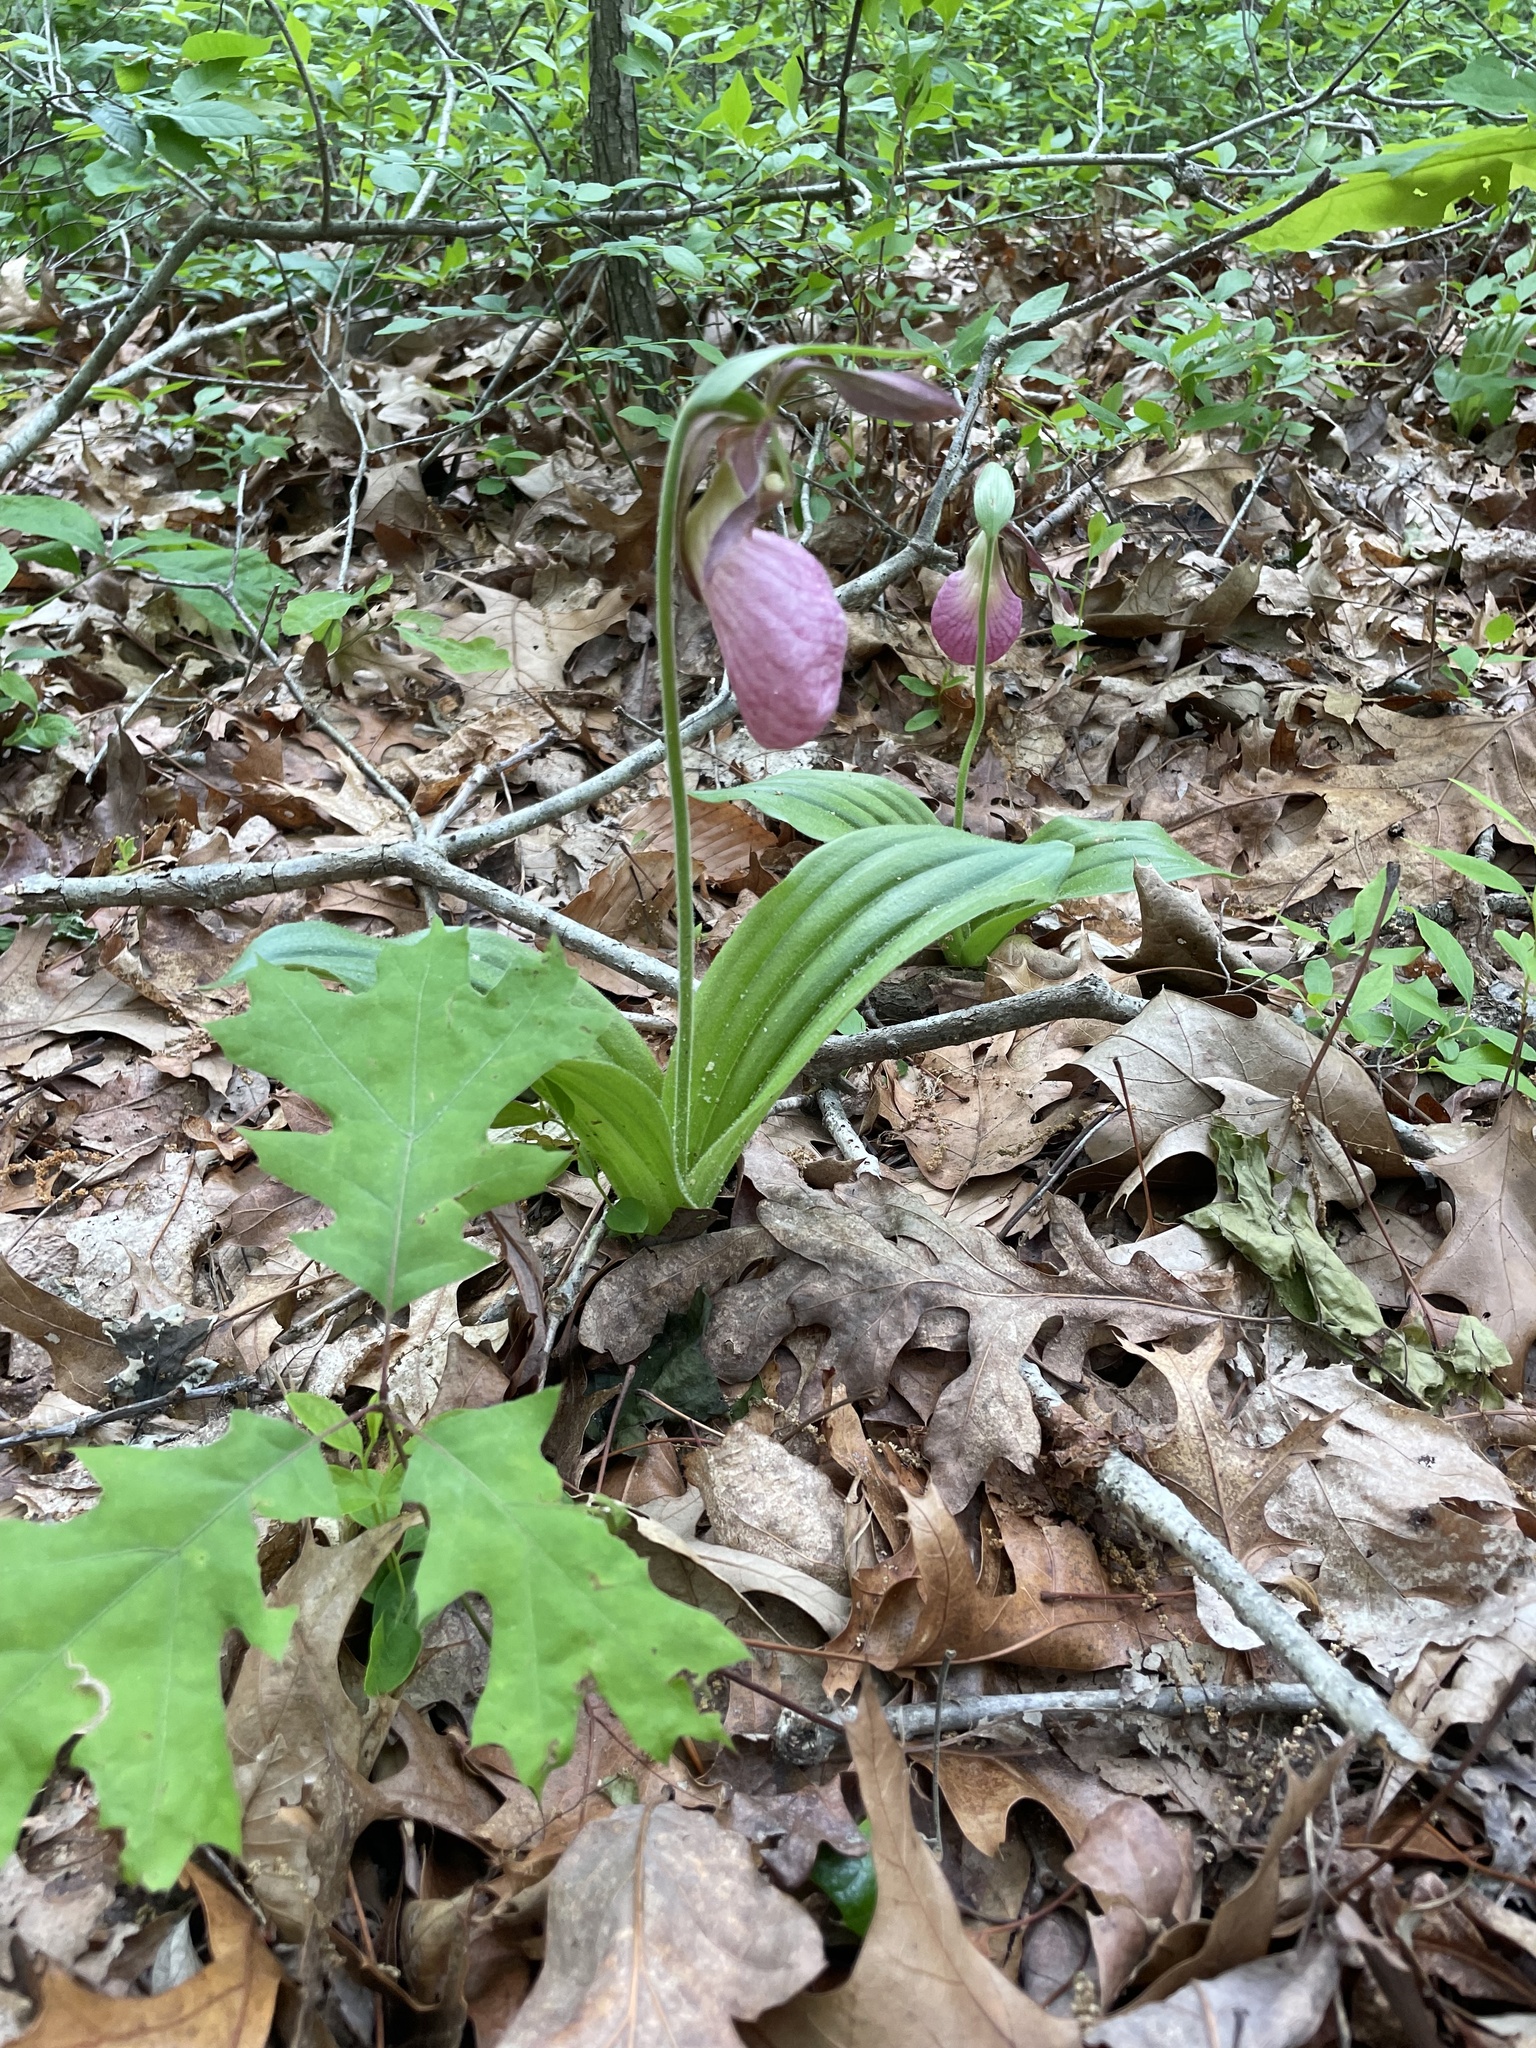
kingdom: Plantae
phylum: Tracheophyta
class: Liliopsida
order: Asparagales
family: Orchidaceae
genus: Cypripedium
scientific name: Cypripedium acaule
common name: Pink lady's-slipper
